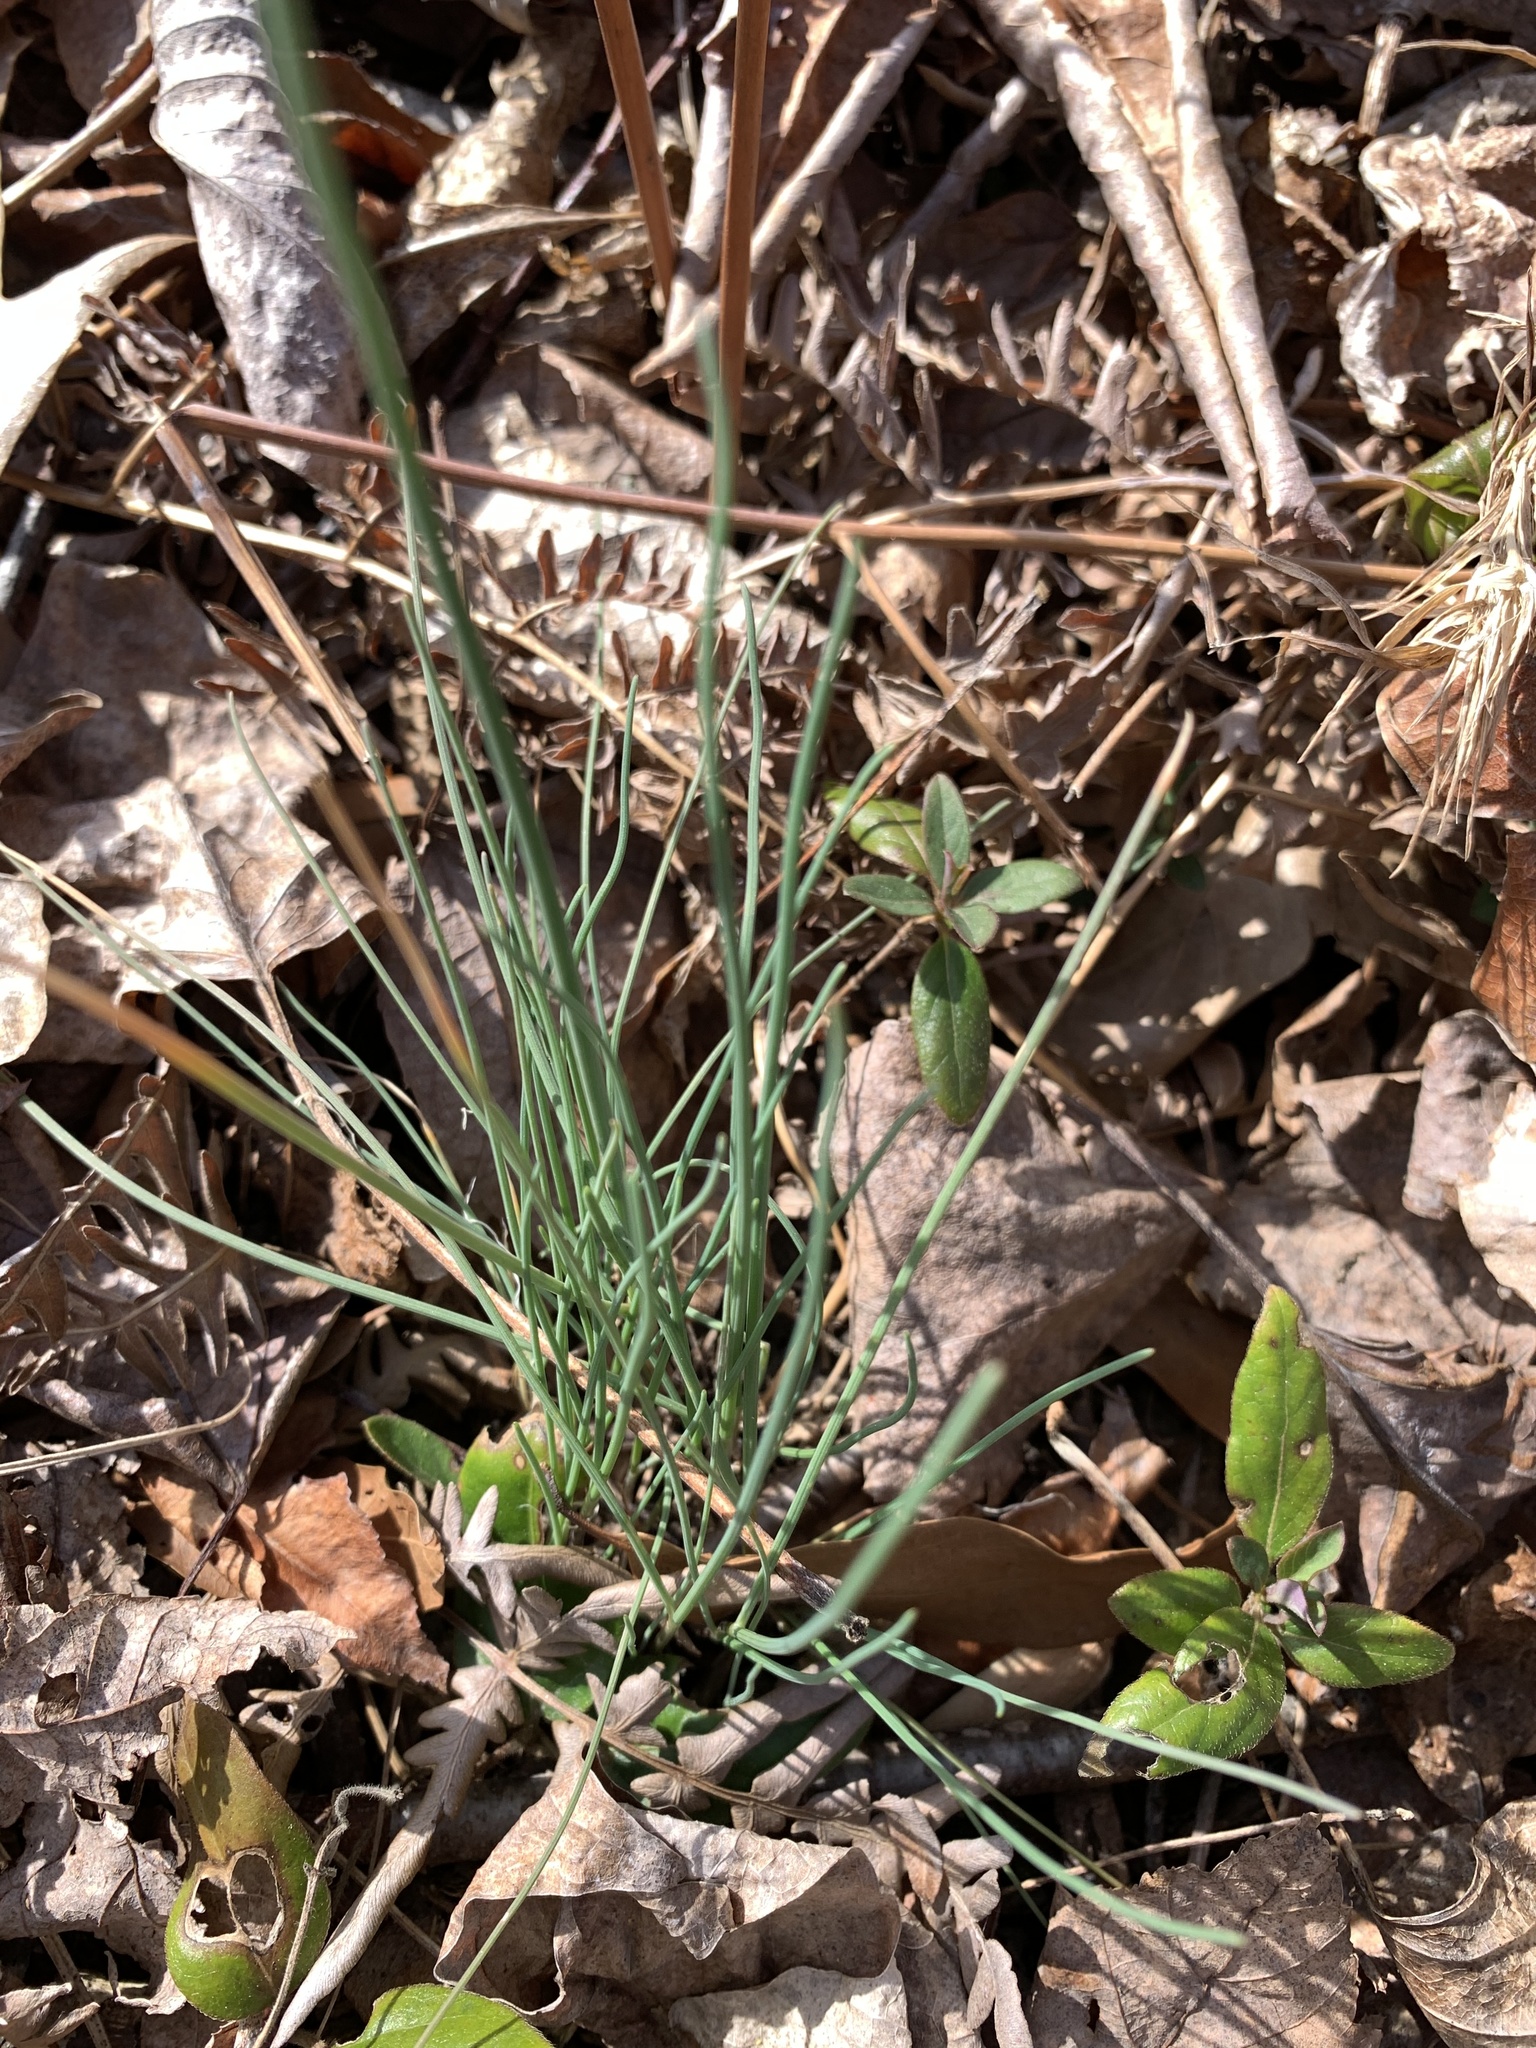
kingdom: Plantae
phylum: Tracheophyta
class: Liliopsida
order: Asparagales
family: Amaryllidaceae
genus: Allium
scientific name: Allium vineale
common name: Crow garlic
